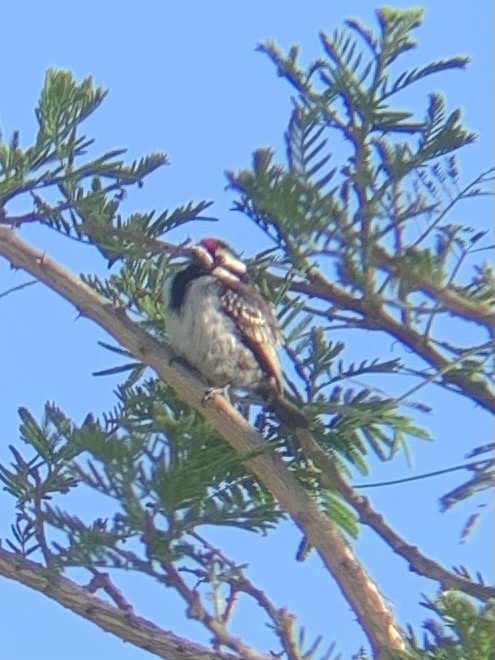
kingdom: Animalia
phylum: Chordata
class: Aves
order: Piciformes
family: Lybiidae
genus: Tricholaema
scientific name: Tricholaema leucomelas
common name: Acacia pied barbet
